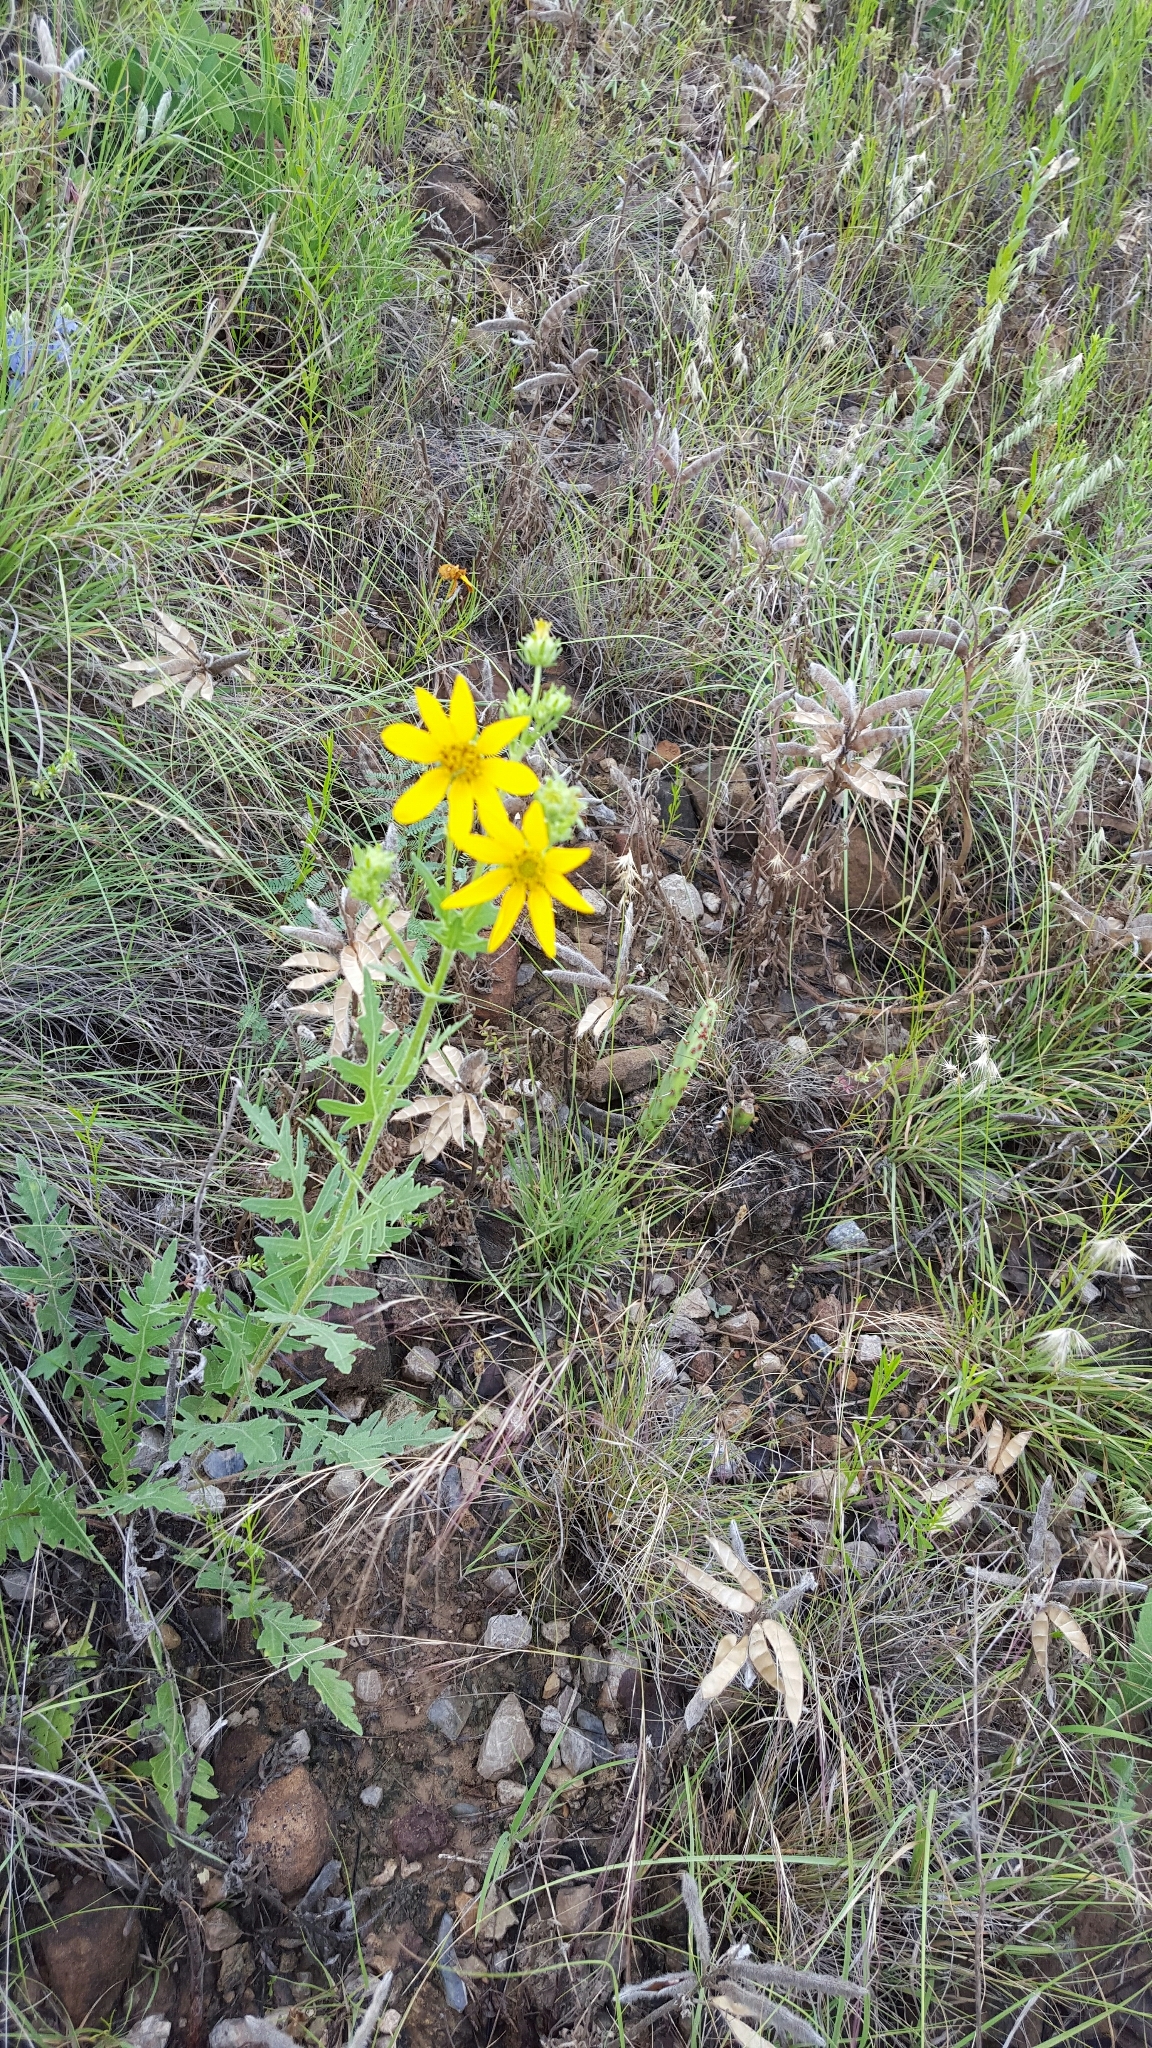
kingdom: Plantae
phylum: Tracheophyta
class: Magnoliopsida
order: Asterales
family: Asteraceae
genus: Engelmannia
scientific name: Engelmannia peristenia
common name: Engelmann's daisy
